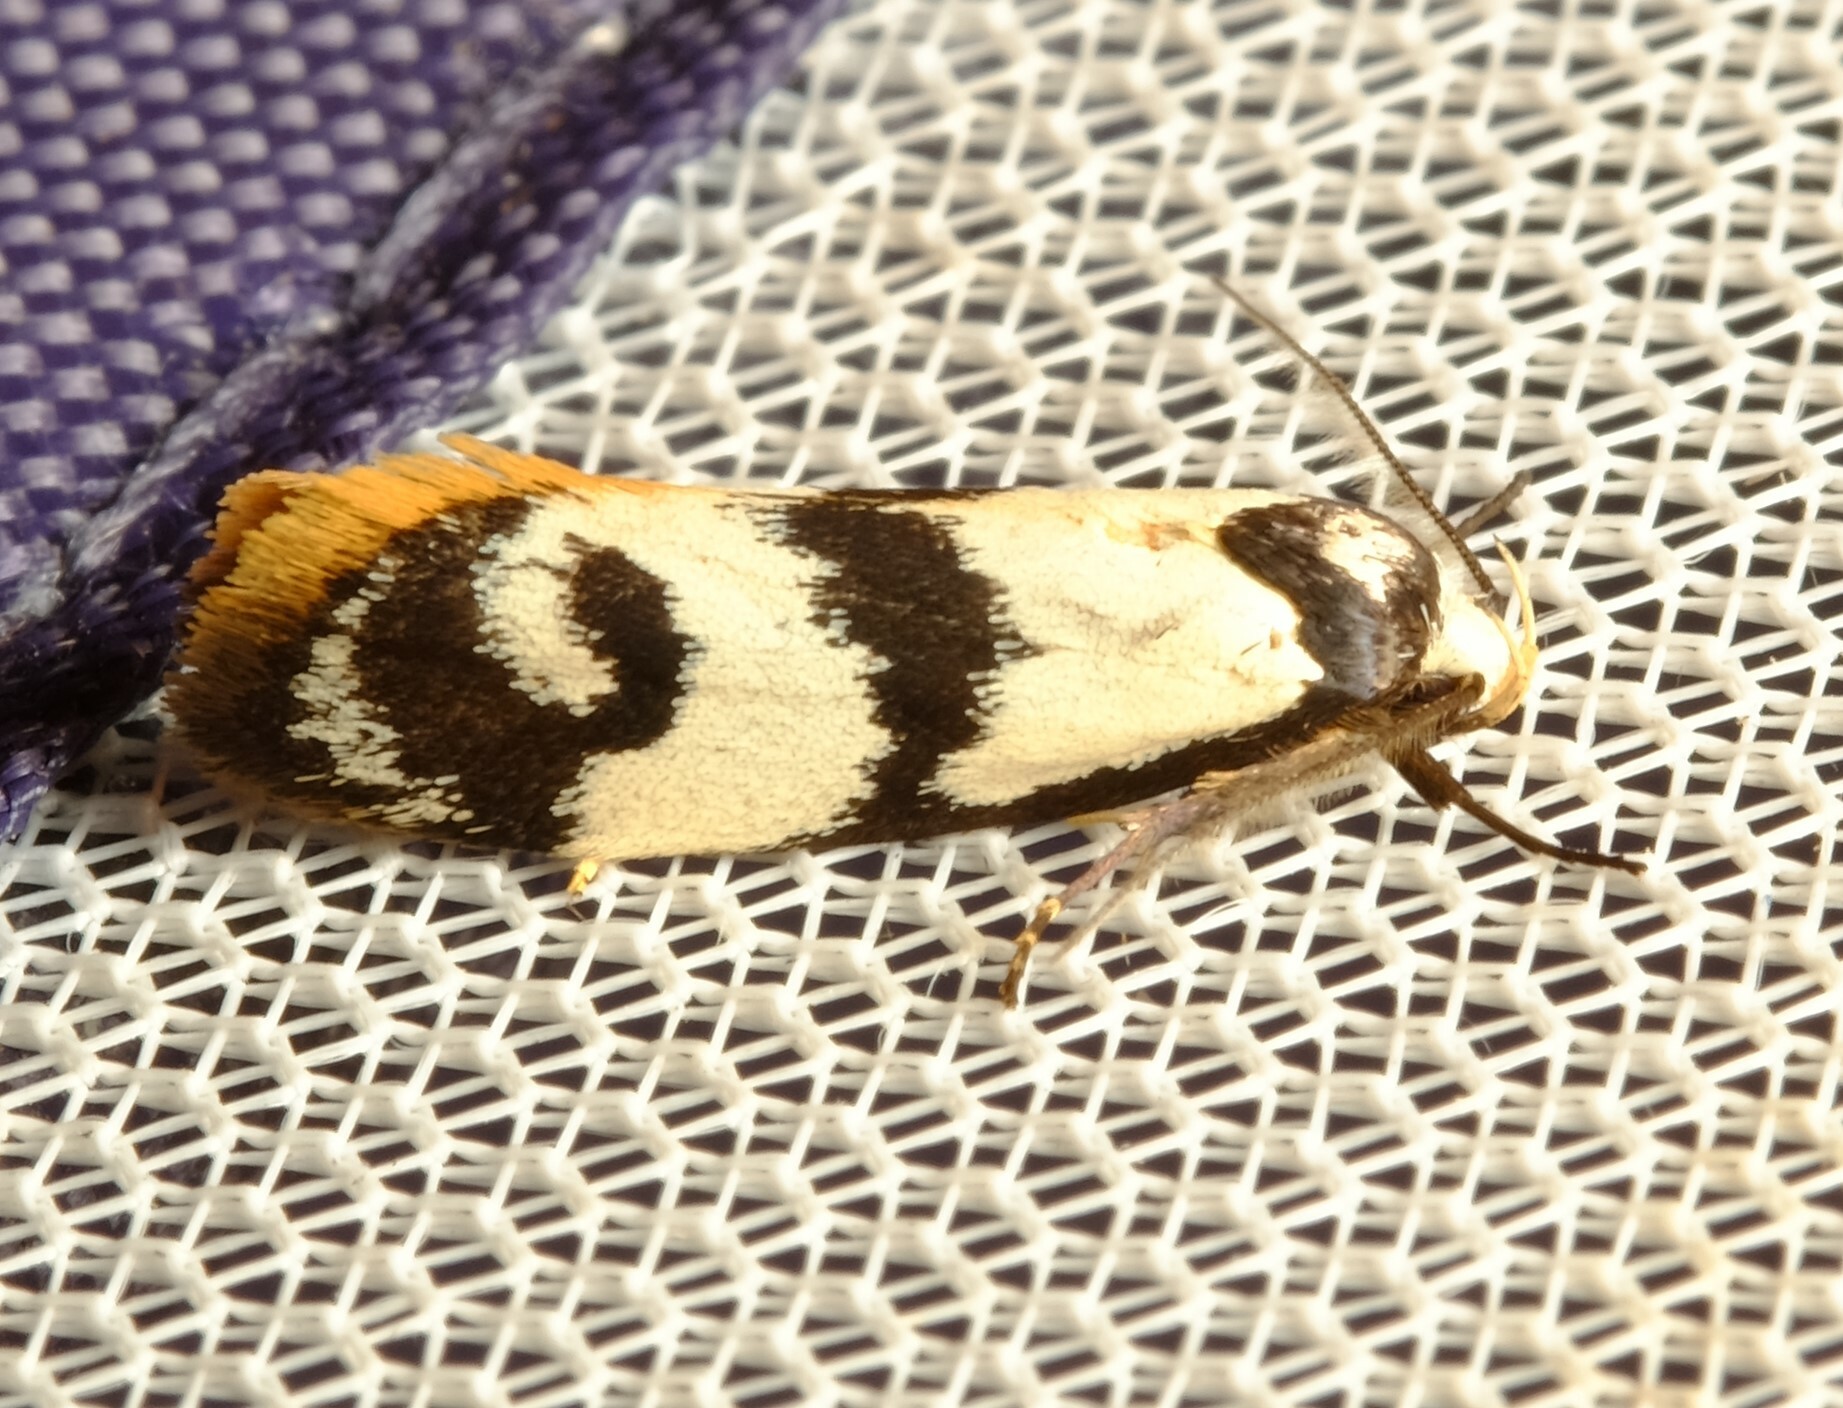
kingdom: Animalia
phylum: Arthropoda
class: Insecta
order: Lepidoptera
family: Oecophoridae
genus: Cosmaresta
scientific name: Cosmaresta eugramma
